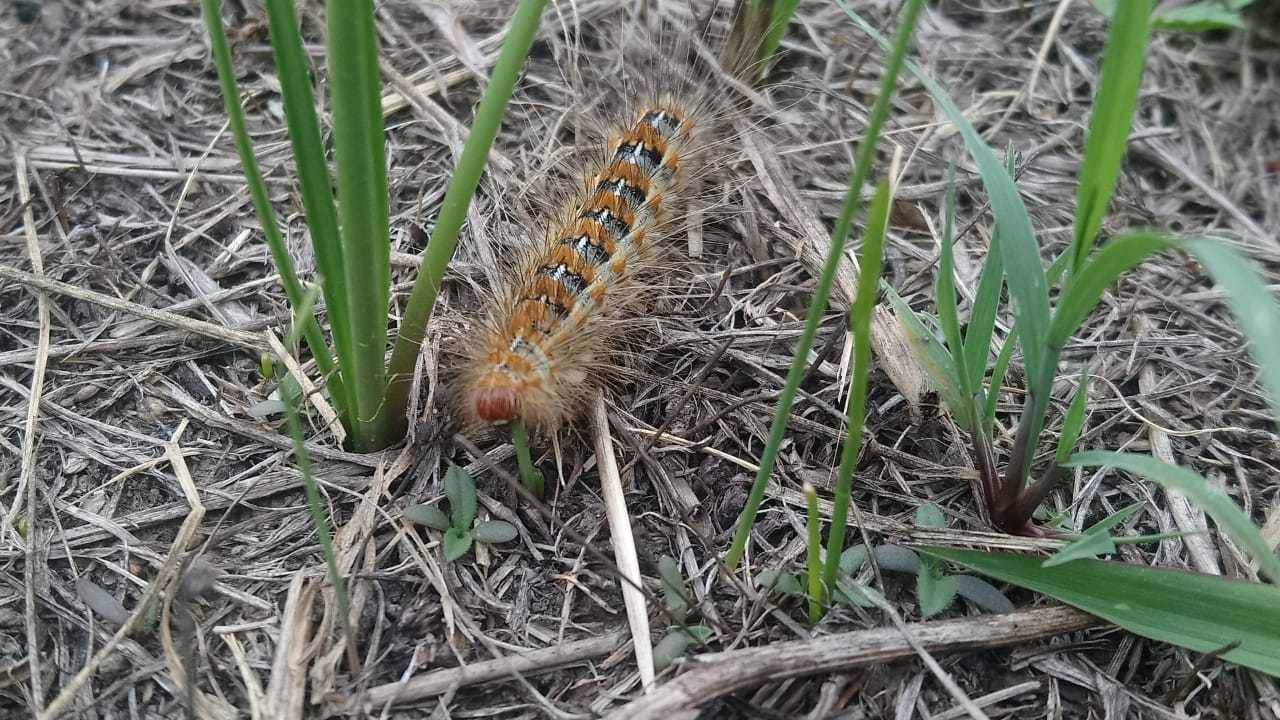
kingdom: Animalia
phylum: Arthropoda
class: Insecta
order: Lepidoptera
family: Erebidae
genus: Paracles
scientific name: Paracles deserticola
